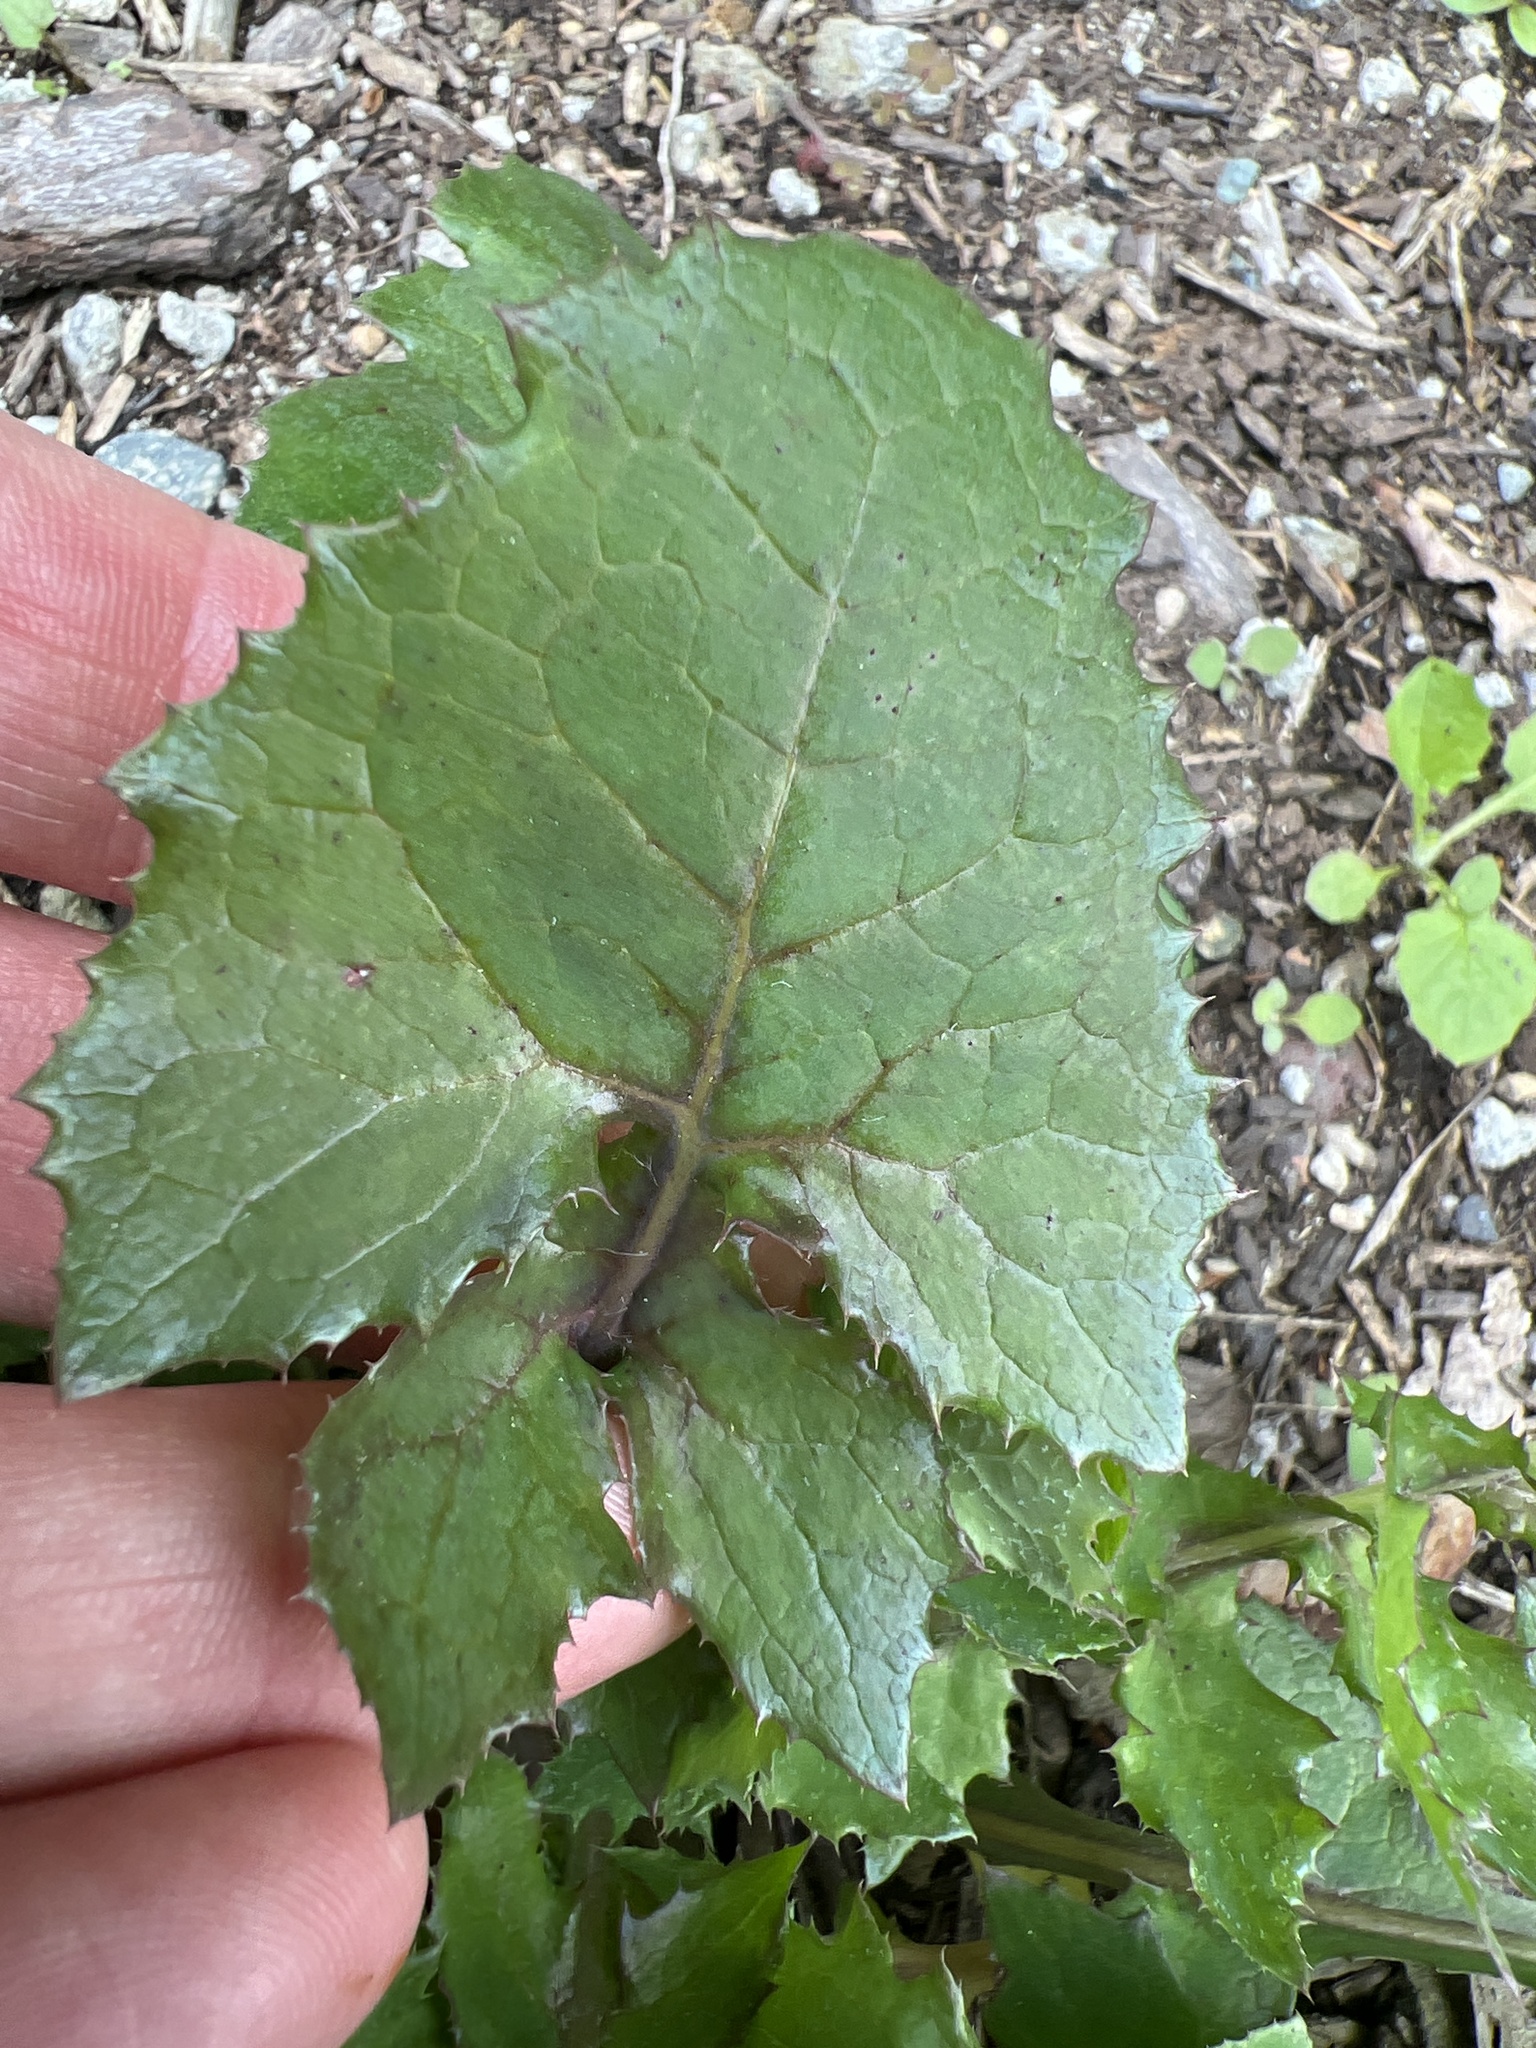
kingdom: Plantae
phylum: Tracheophyta
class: Magnoliopsida
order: Asterales
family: Asteraceae
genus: Sonchus
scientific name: Sonchus oleraceus
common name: Common sowthistle
